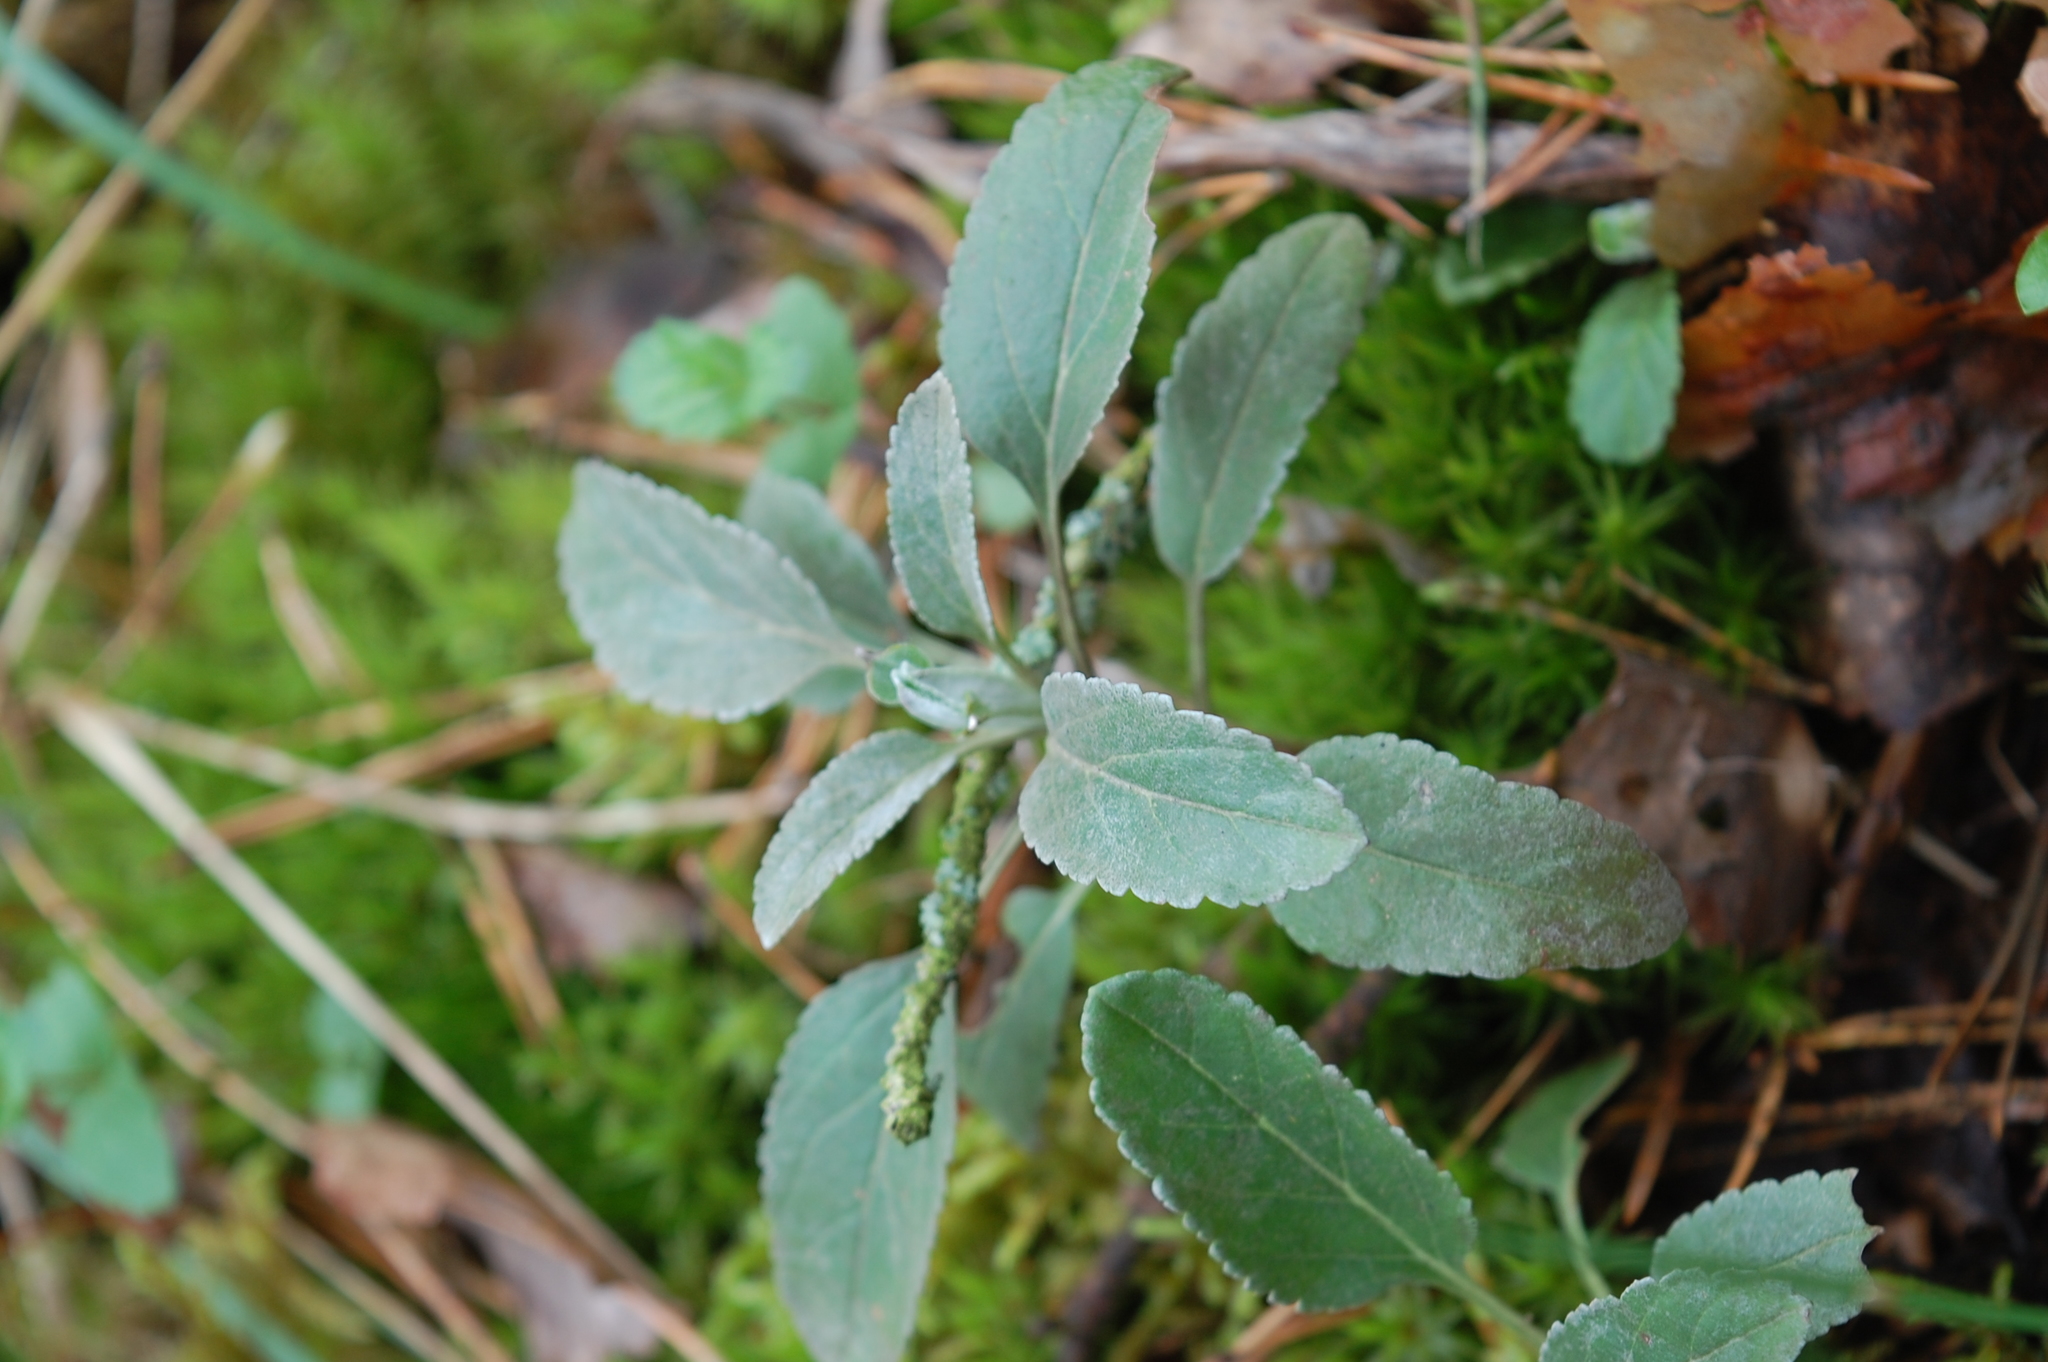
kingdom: Plantae
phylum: Tracheophyta
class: Magnoliopsida
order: Lamiales
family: Plantaginaceae
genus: Veronica
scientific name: Veronica incana
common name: Silver speedwell
